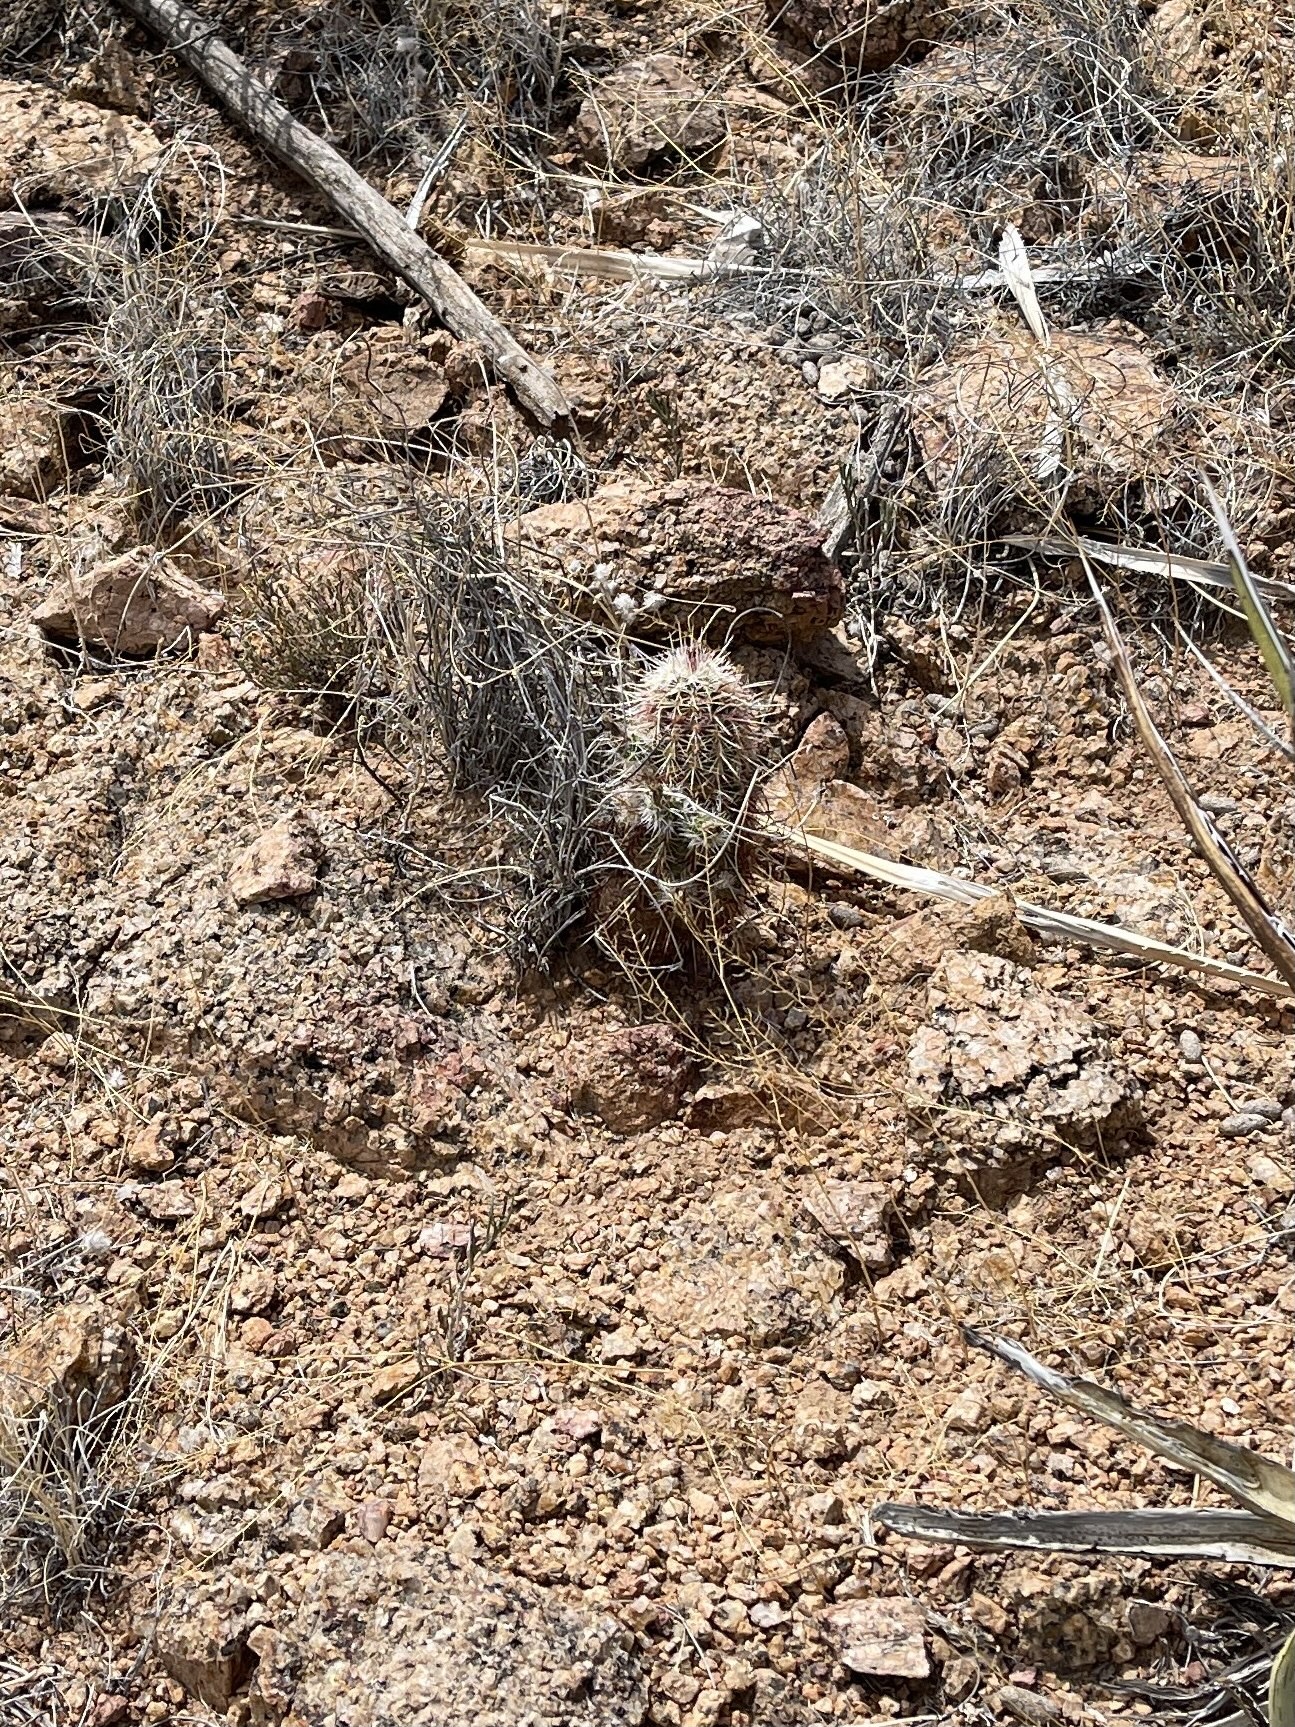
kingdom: Plantae
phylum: Tracheophyta
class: Magnoliopsida
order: Caryophyllales
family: Cactaceae
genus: Echinocereus
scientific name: Echinocereus viridiflorus
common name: Nylon hedgehog cactus
